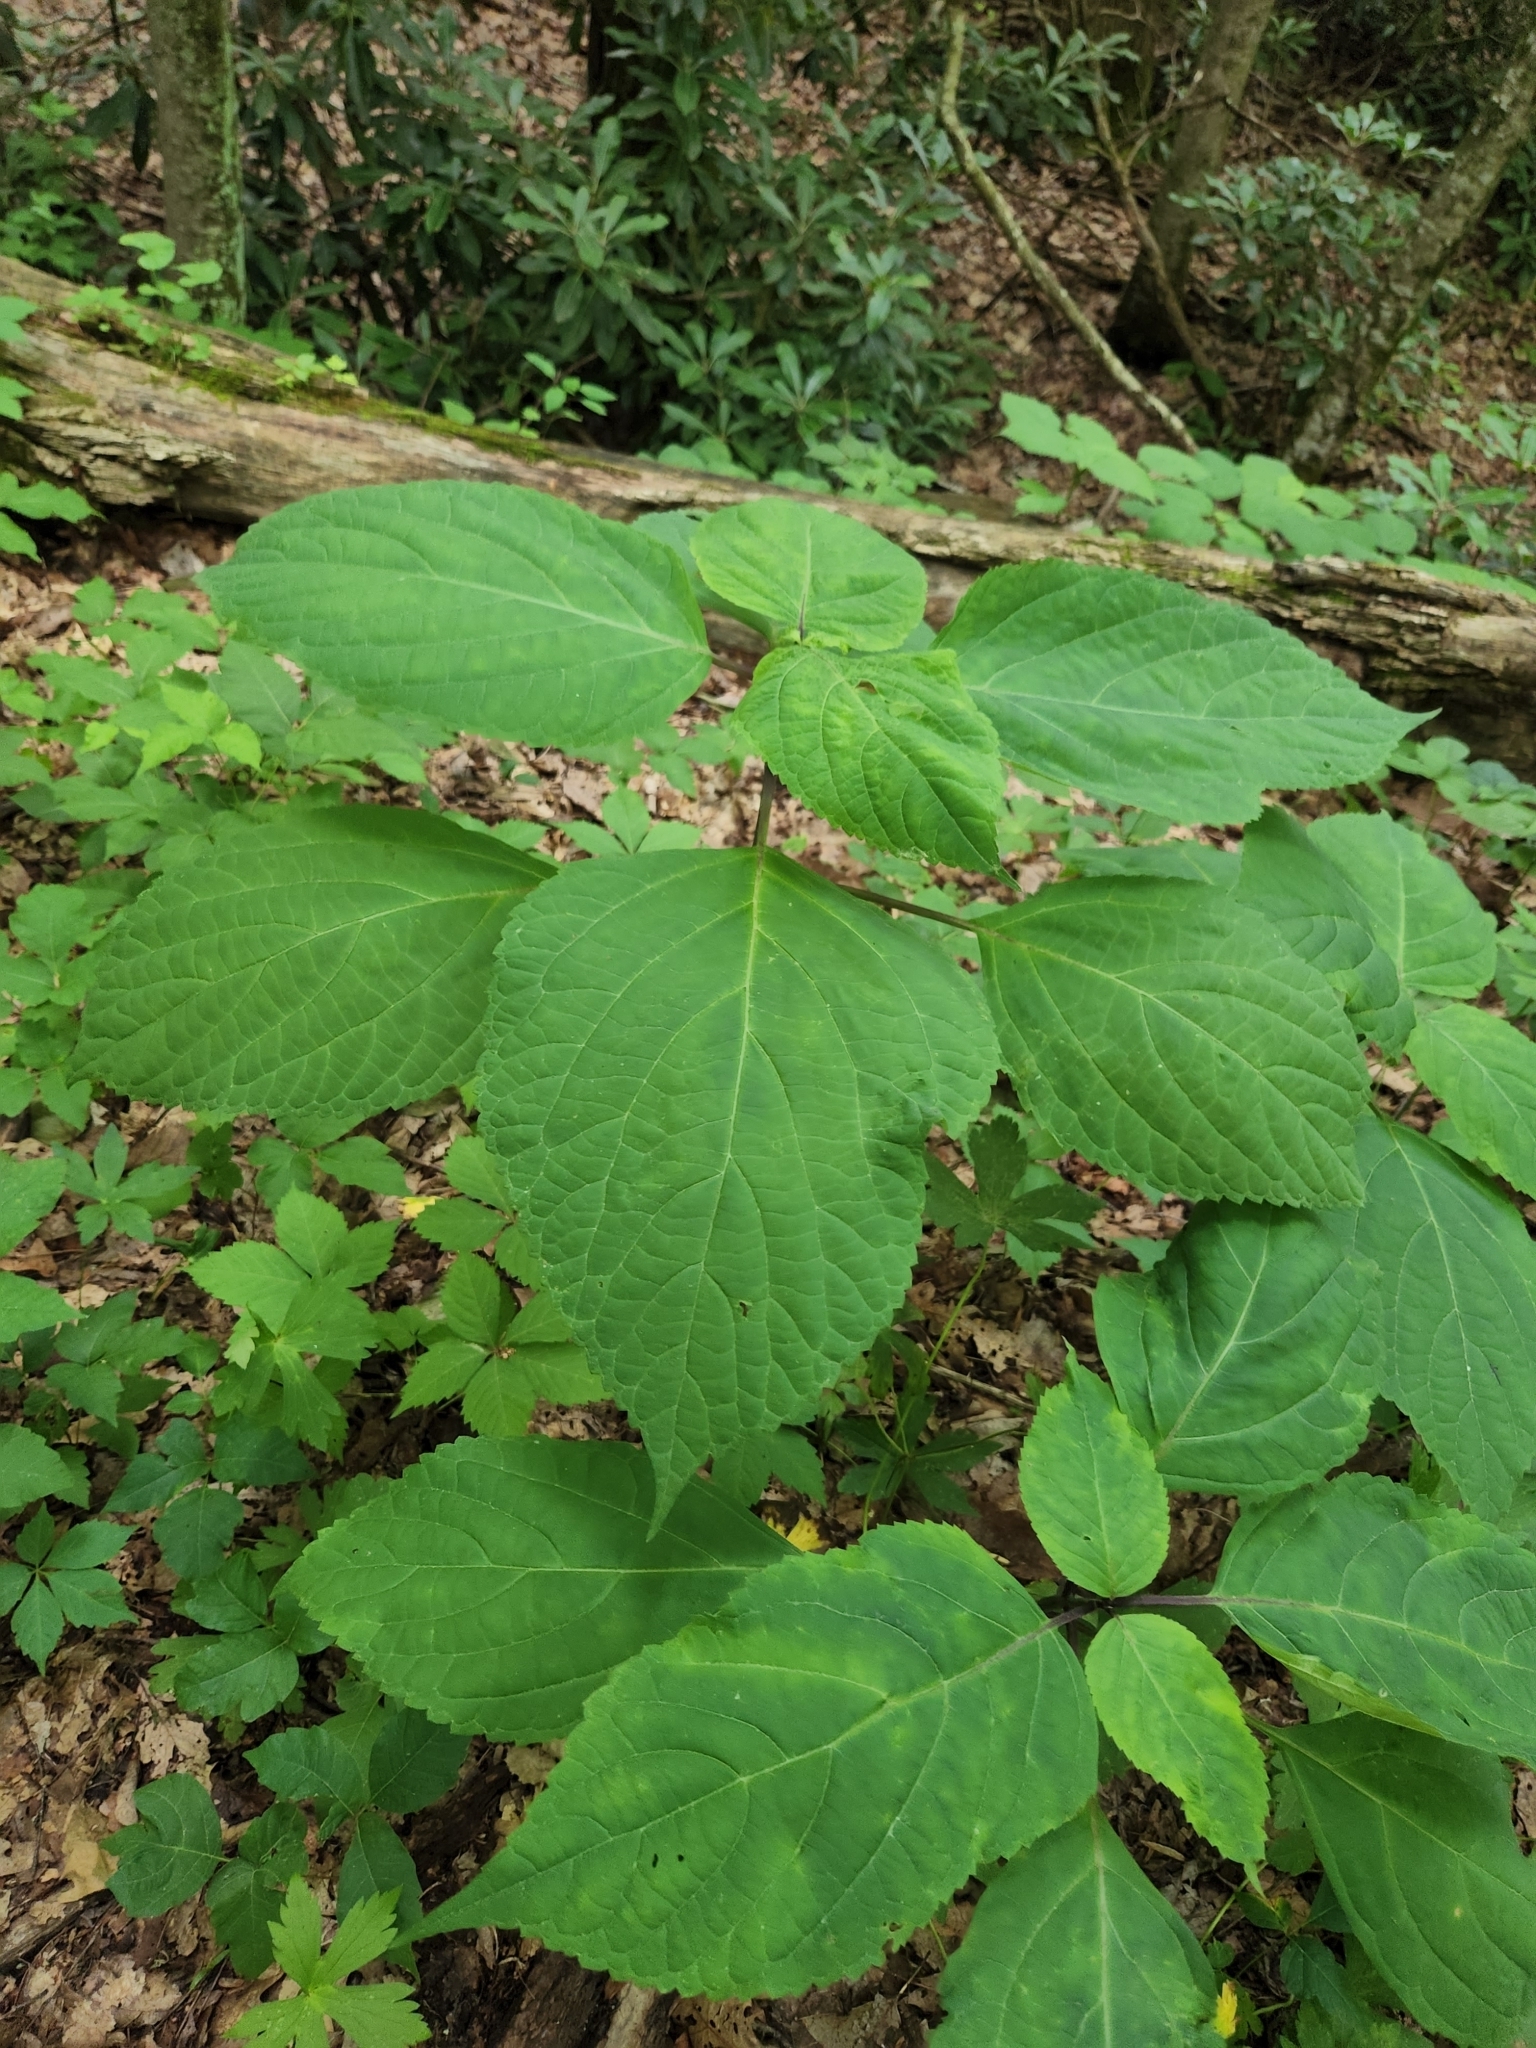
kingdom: Plantae
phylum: Tracheophyta
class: Magnoliopsida
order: Lamiales
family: Lamiaceae
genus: Collinsonia
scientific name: Collinsonia canadensis
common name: Northern horsebalm
